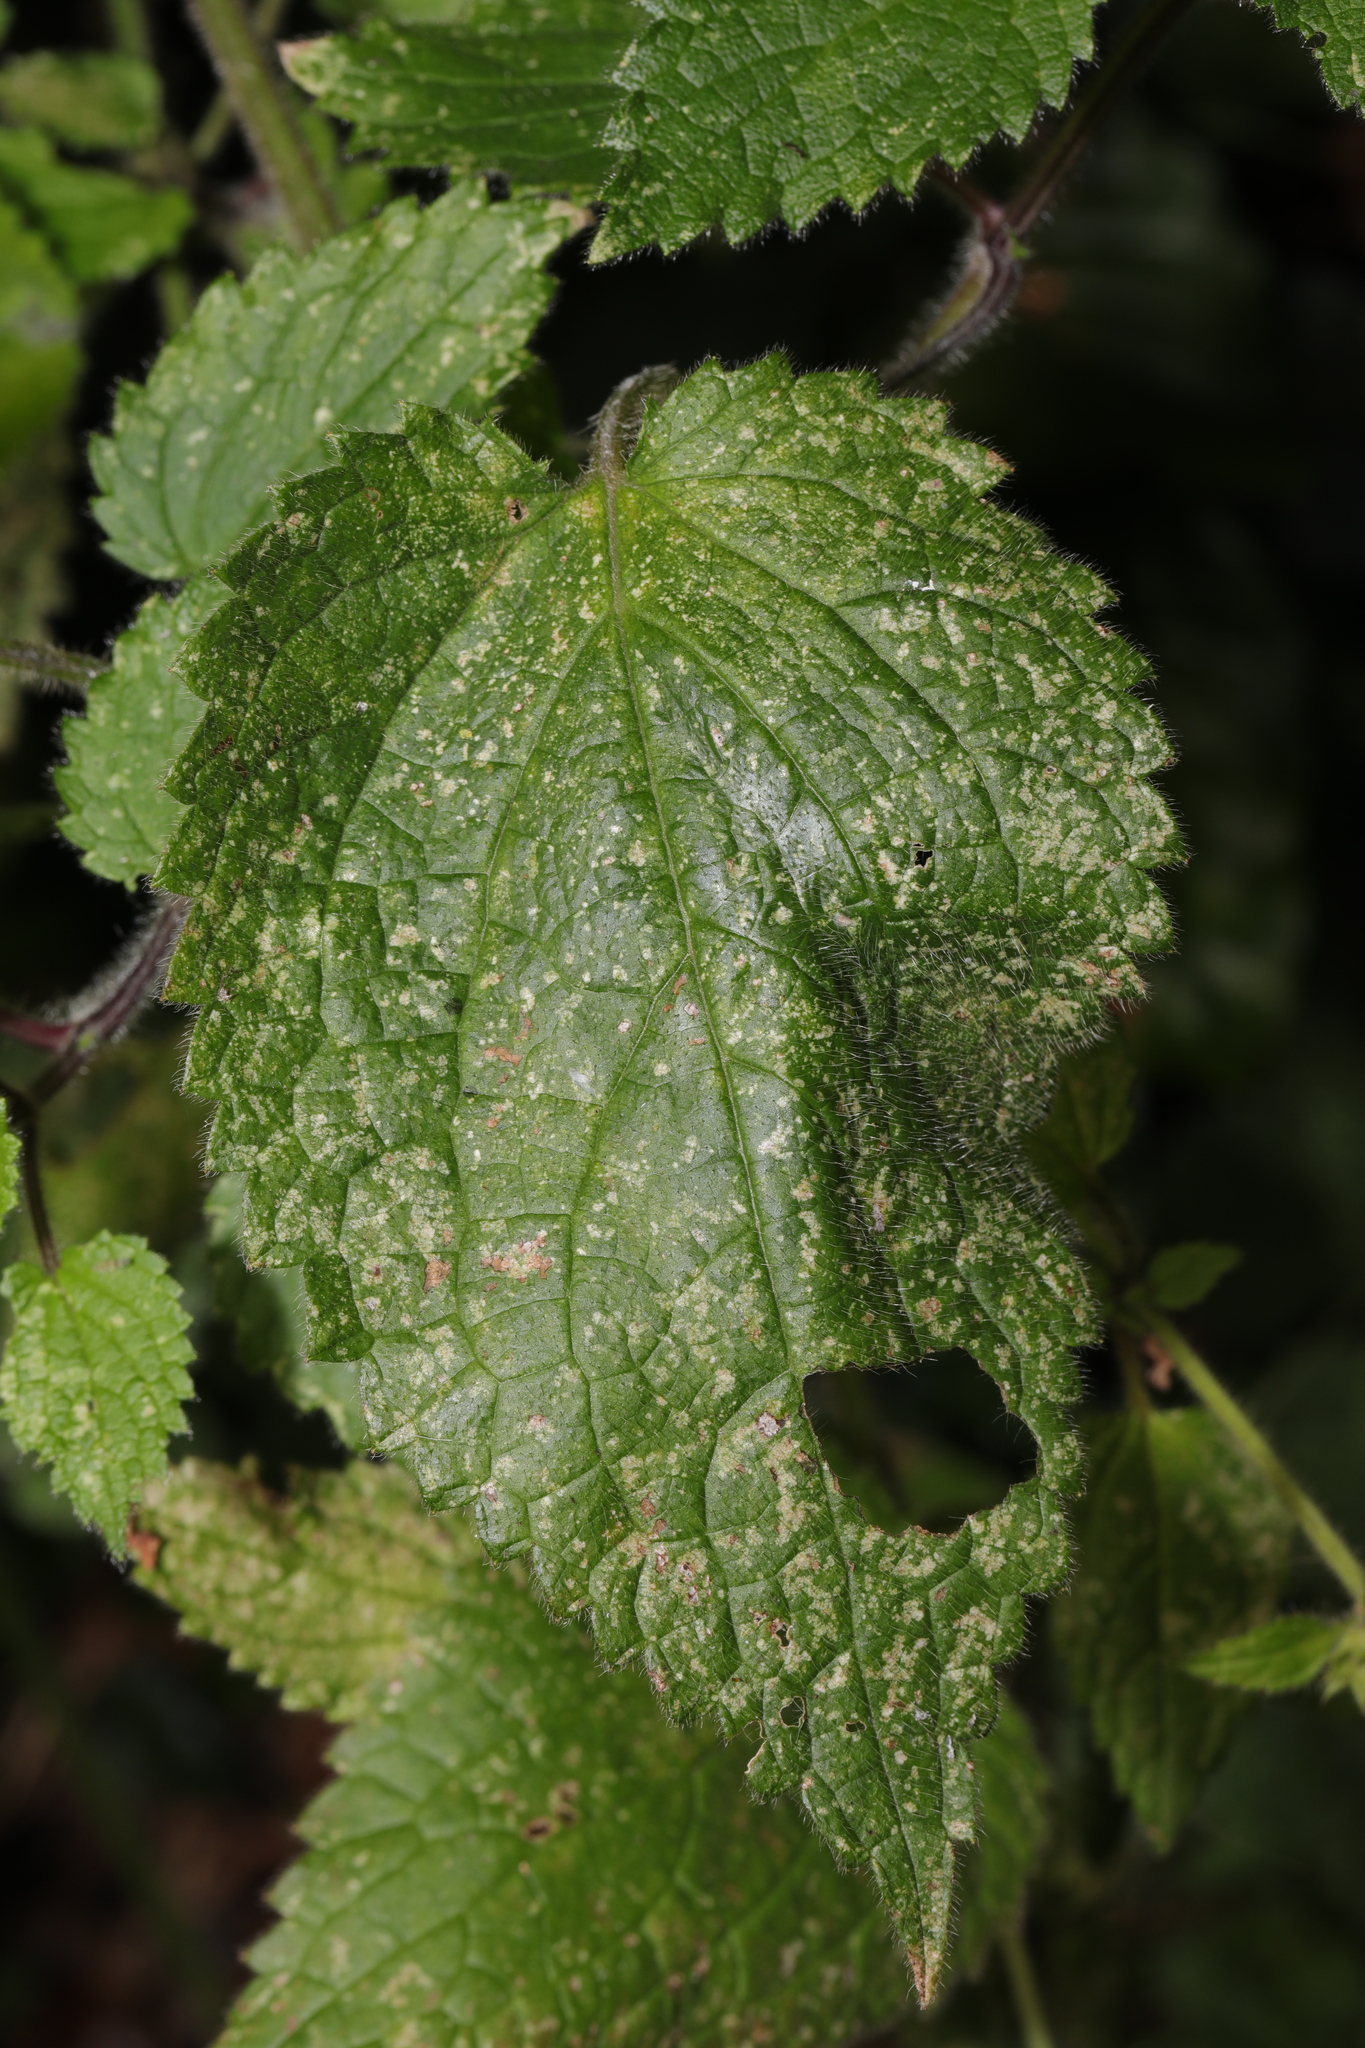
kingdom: Plantae
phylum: Tracheophyta
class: Magnoliopsida
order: Lamiales
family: Lamiaceae
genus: Stachys
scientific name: Stachys sylvatica
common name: Hedge woundwort
